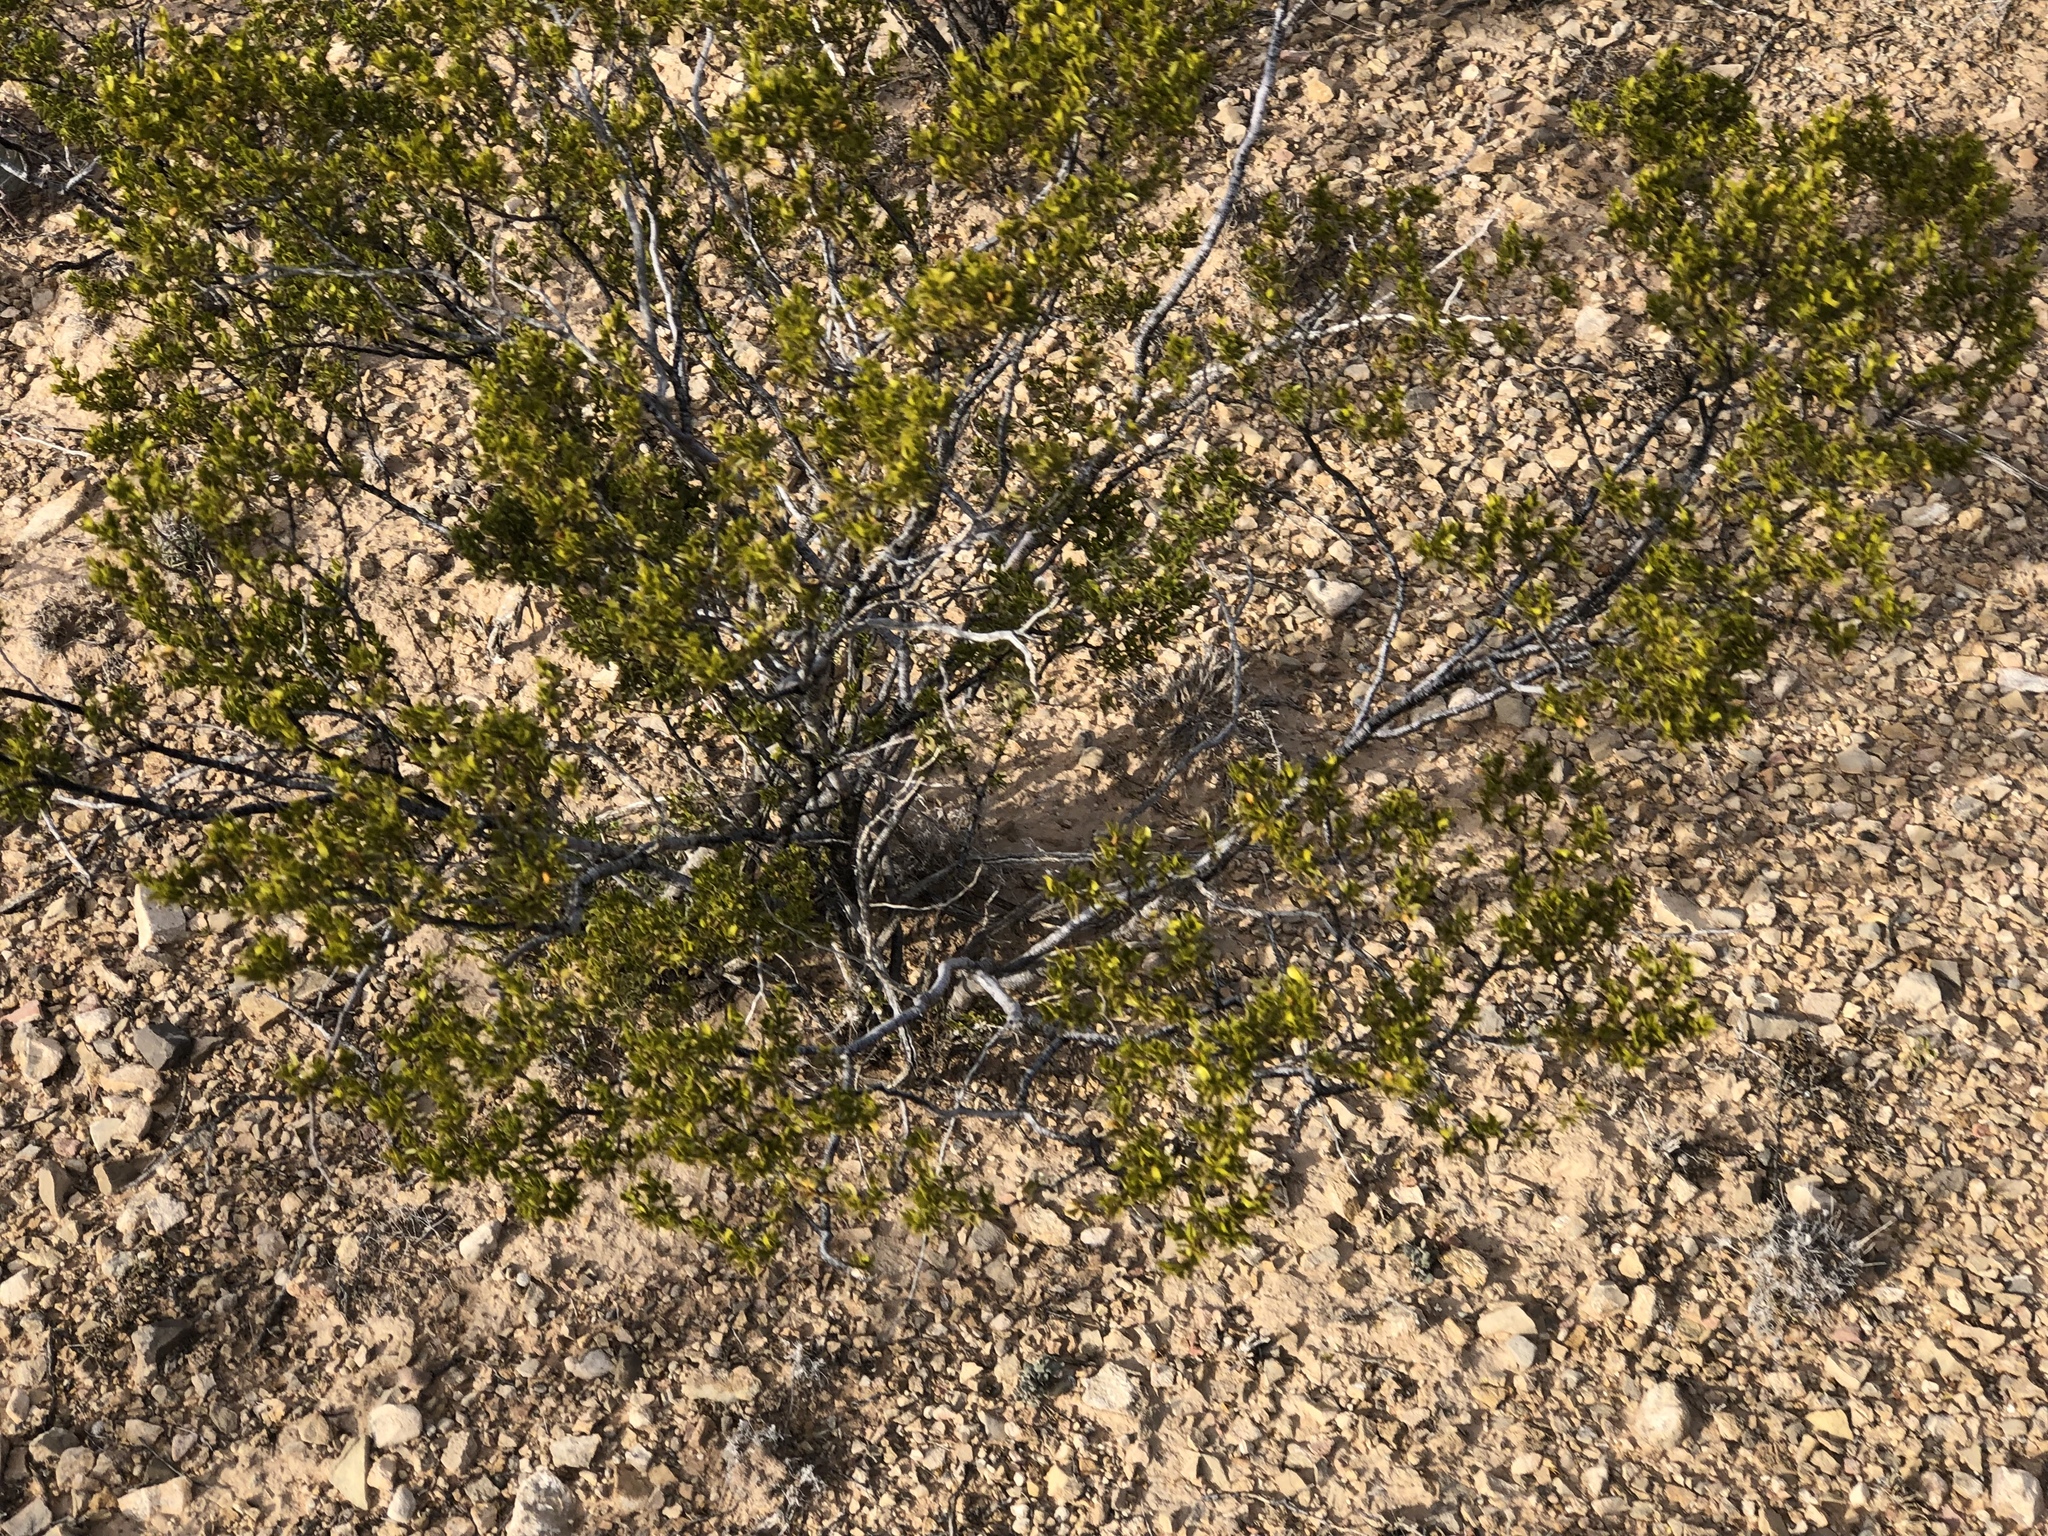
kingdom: Plantae
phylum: Tracheophyta
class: Magnoliopsida
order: Zygophyllales
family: Zygophyllaceae
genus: Larrea
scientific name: Larrea tridentata
